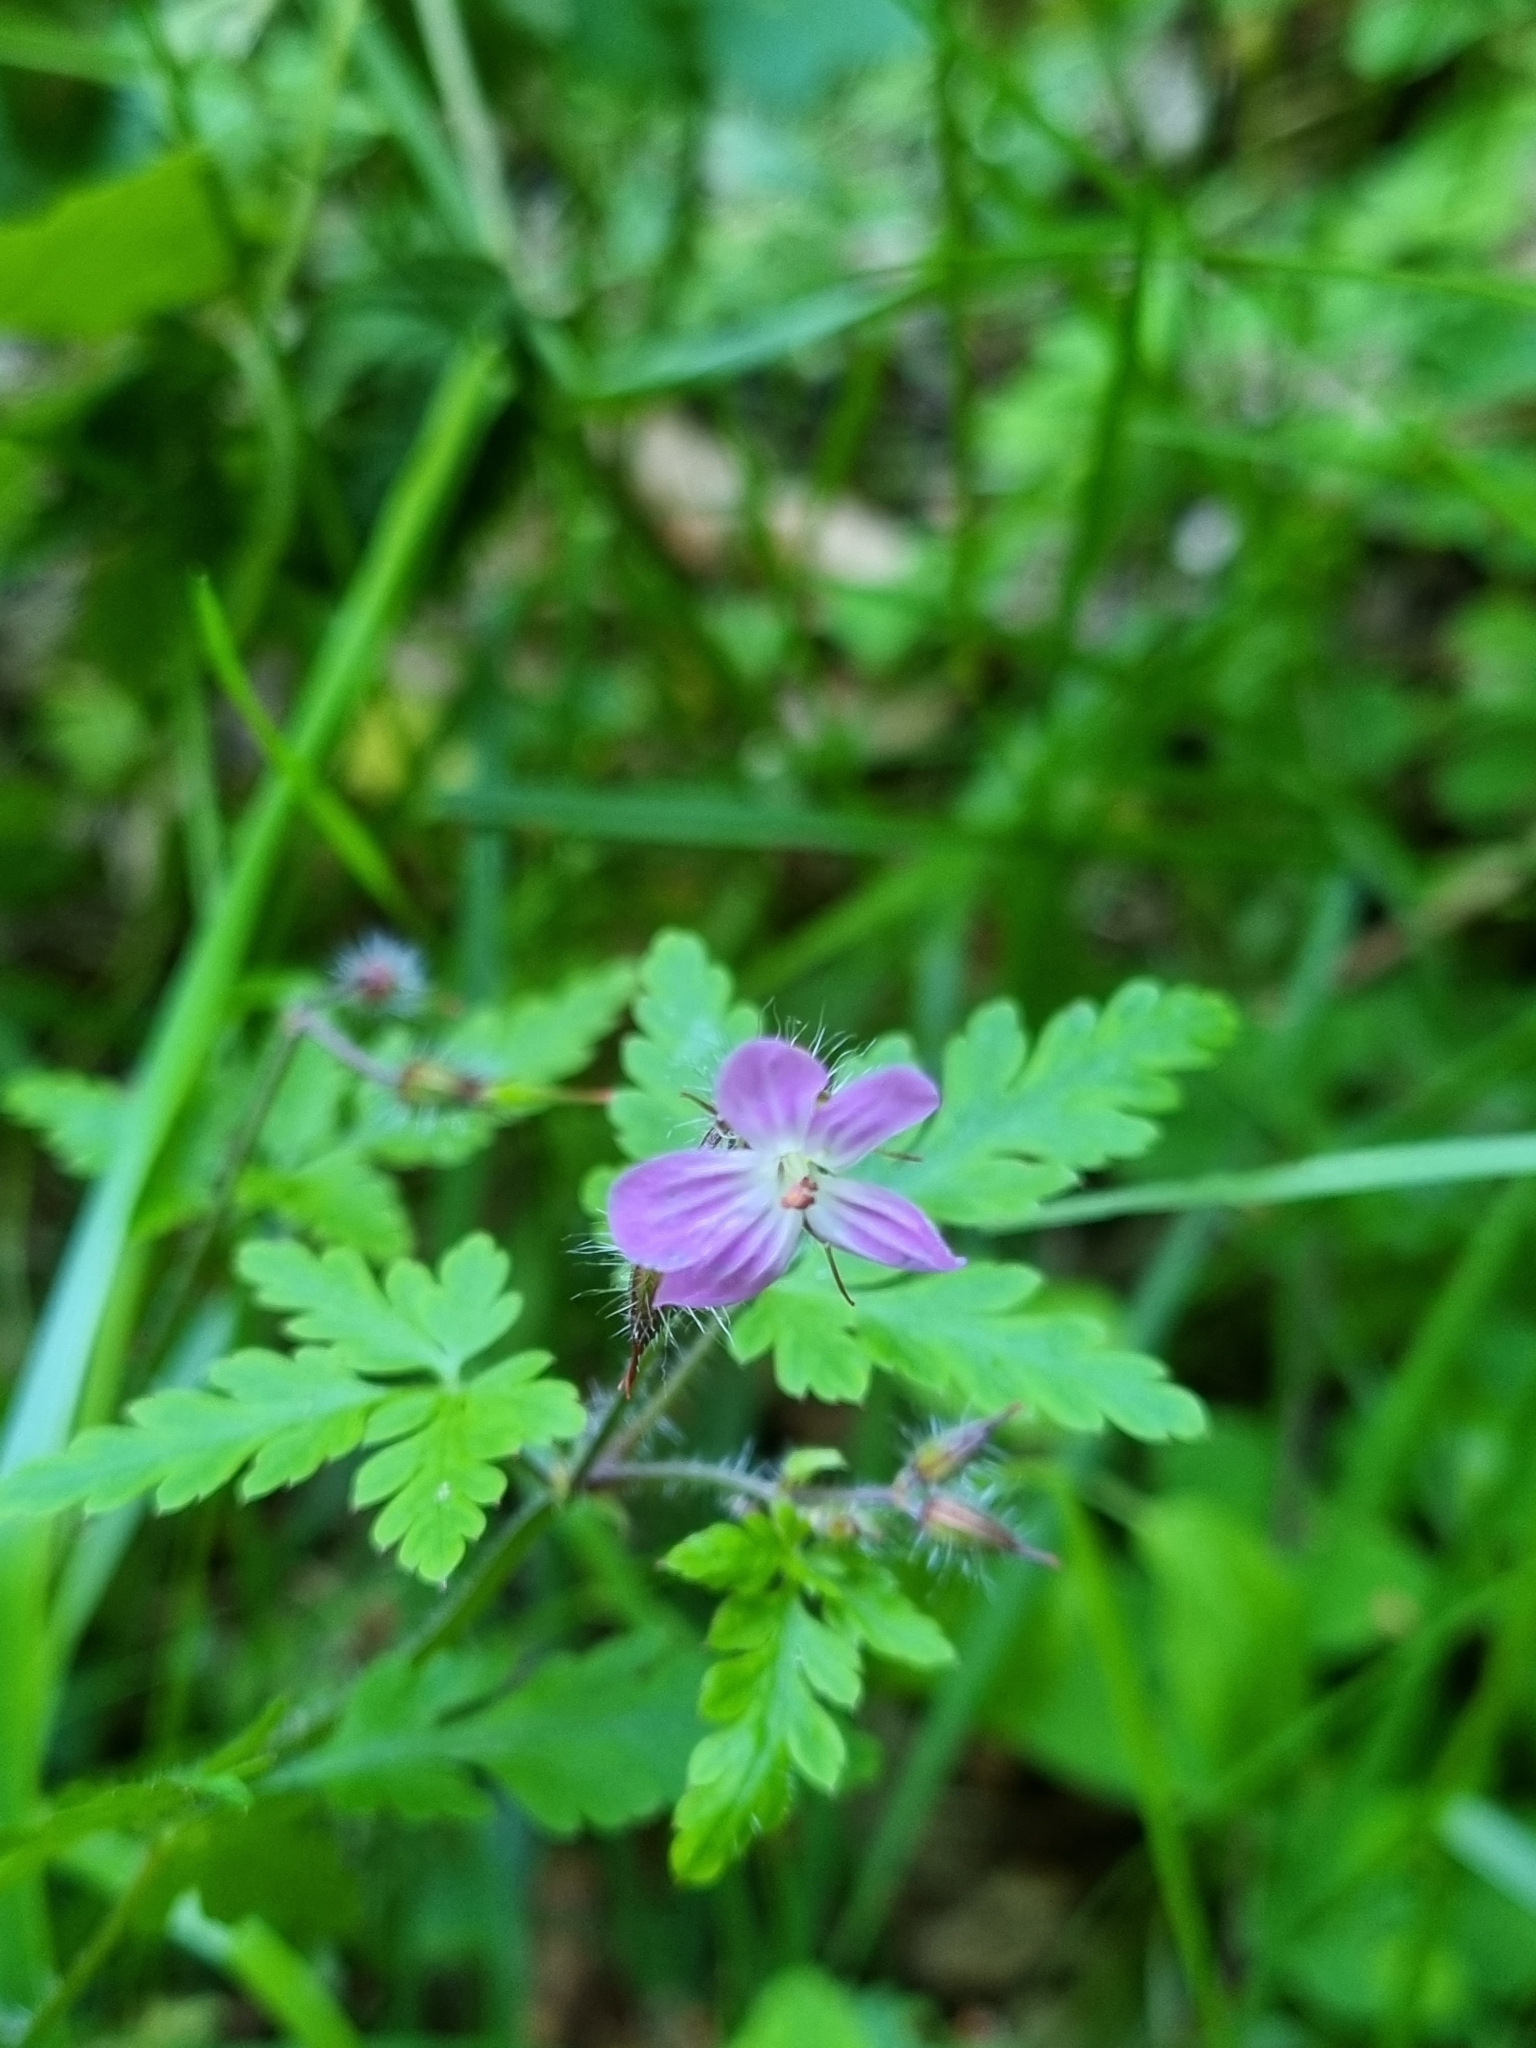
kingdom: Plantae
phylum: Tracheophyta
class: Magnoliopsida
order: Geraniales
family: Geraniaceae
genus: Geranium
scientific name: Geranium robertianum
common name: Herb-robert
